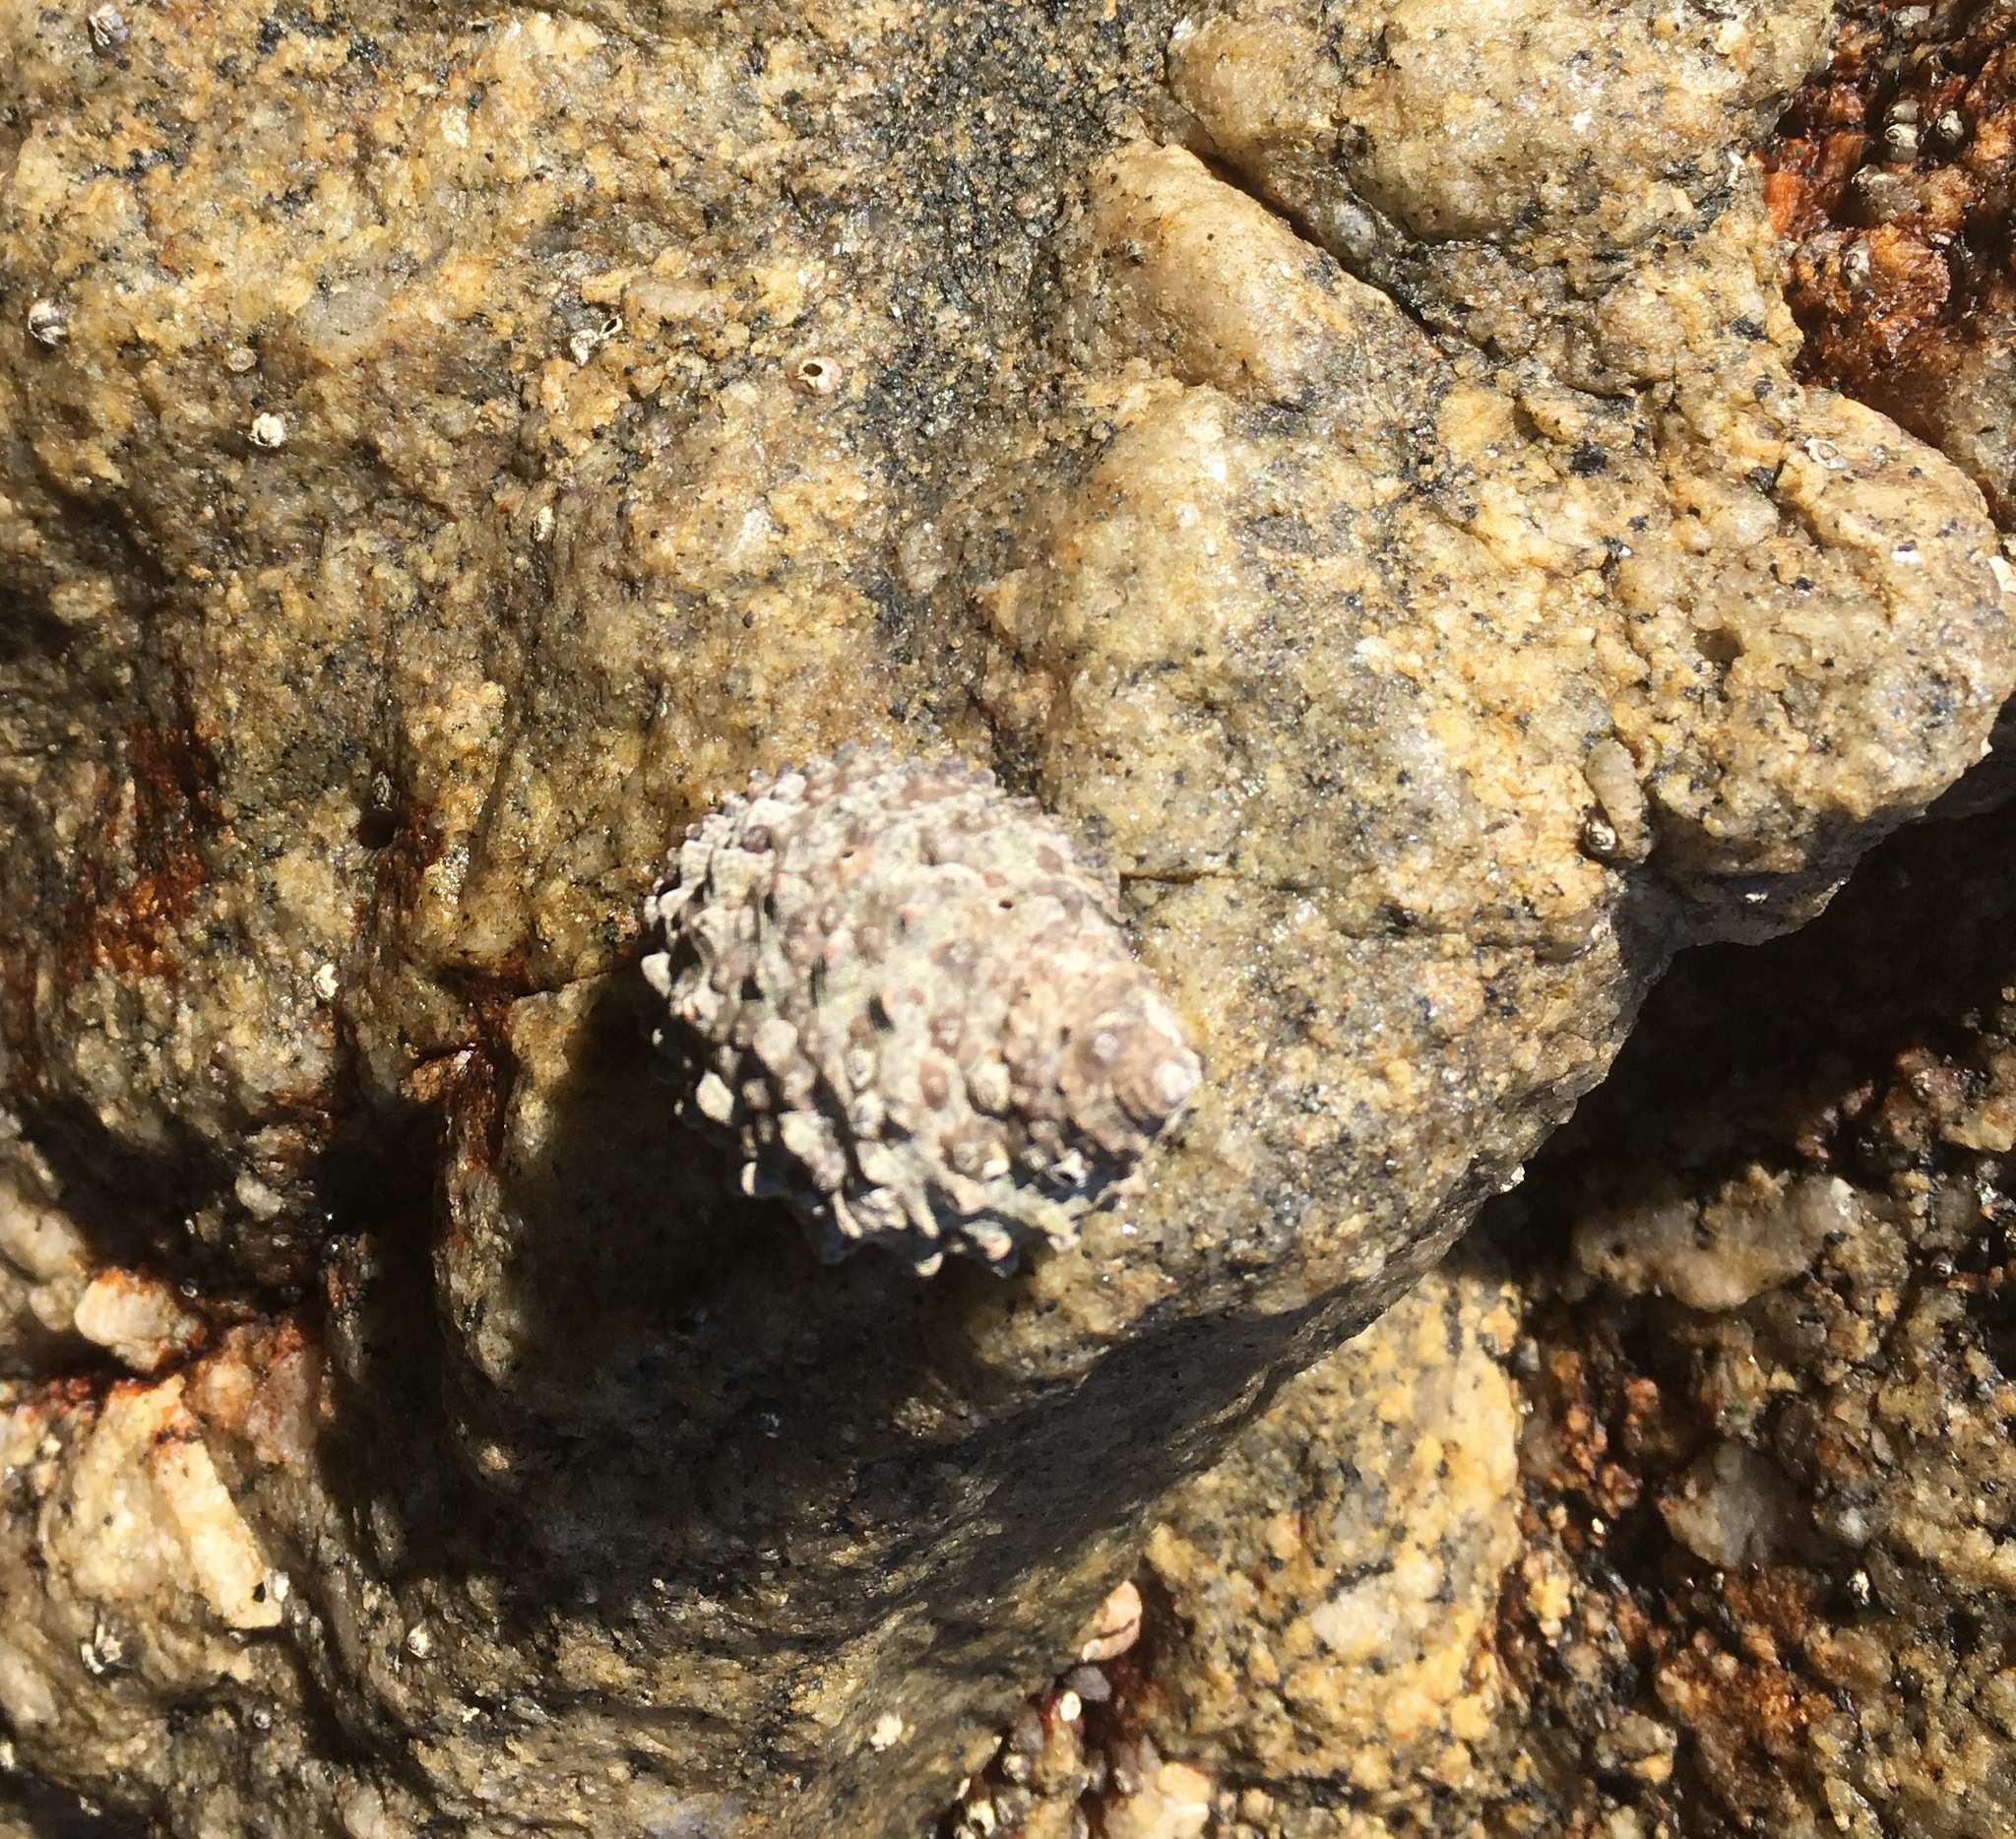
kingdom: Animalia
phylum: Mollusca
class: Gastropoda
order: Neogastropoda
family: Muricidae
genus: Plicopurpura
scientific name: Plicopurpura columellaris
